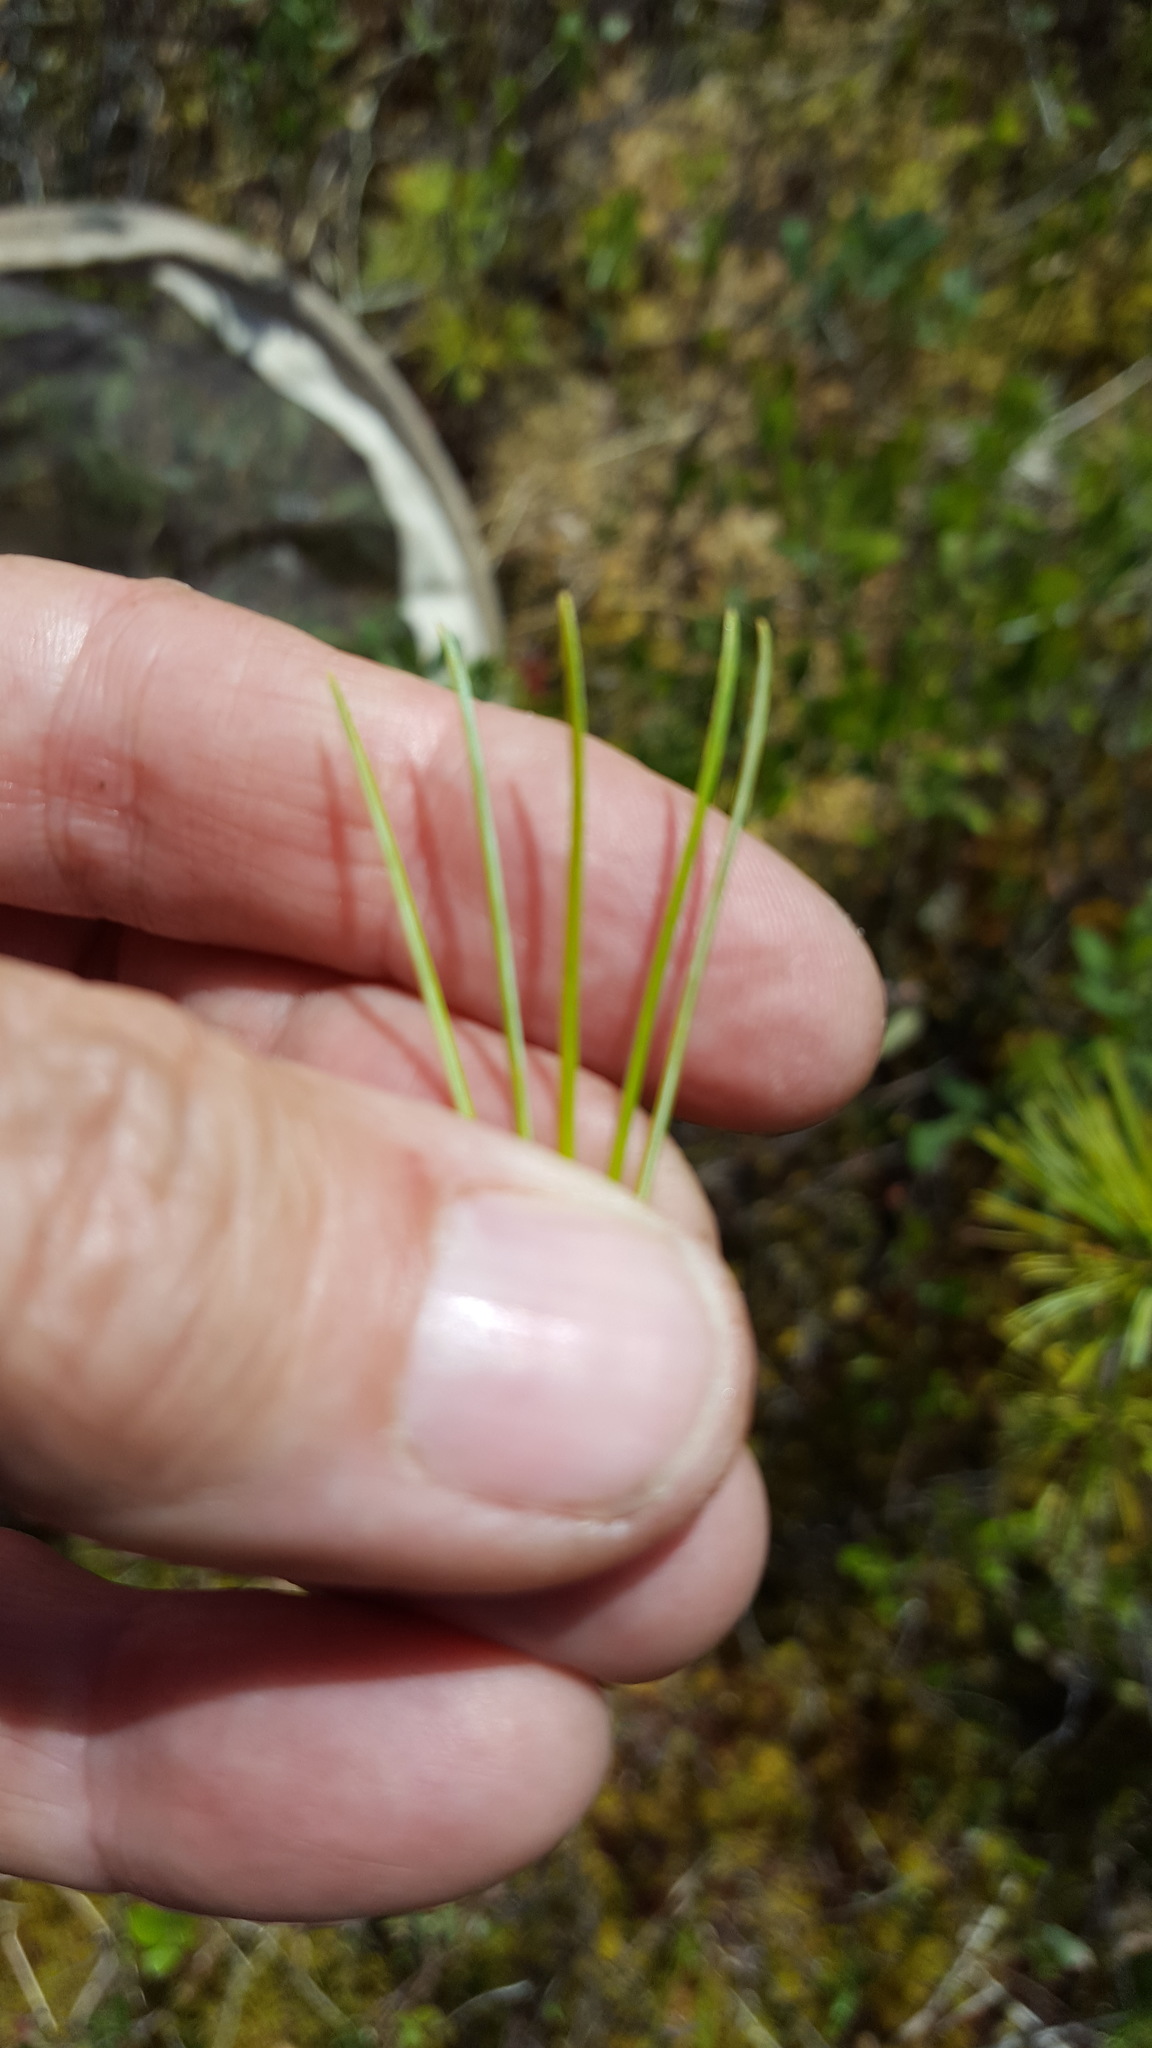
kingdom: Plantae
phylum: Tracheophyta
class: Pinopsida
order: Pinales
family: Pinaceae
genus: Pinus
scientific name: Pinus strobus
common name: Weymouth pine
